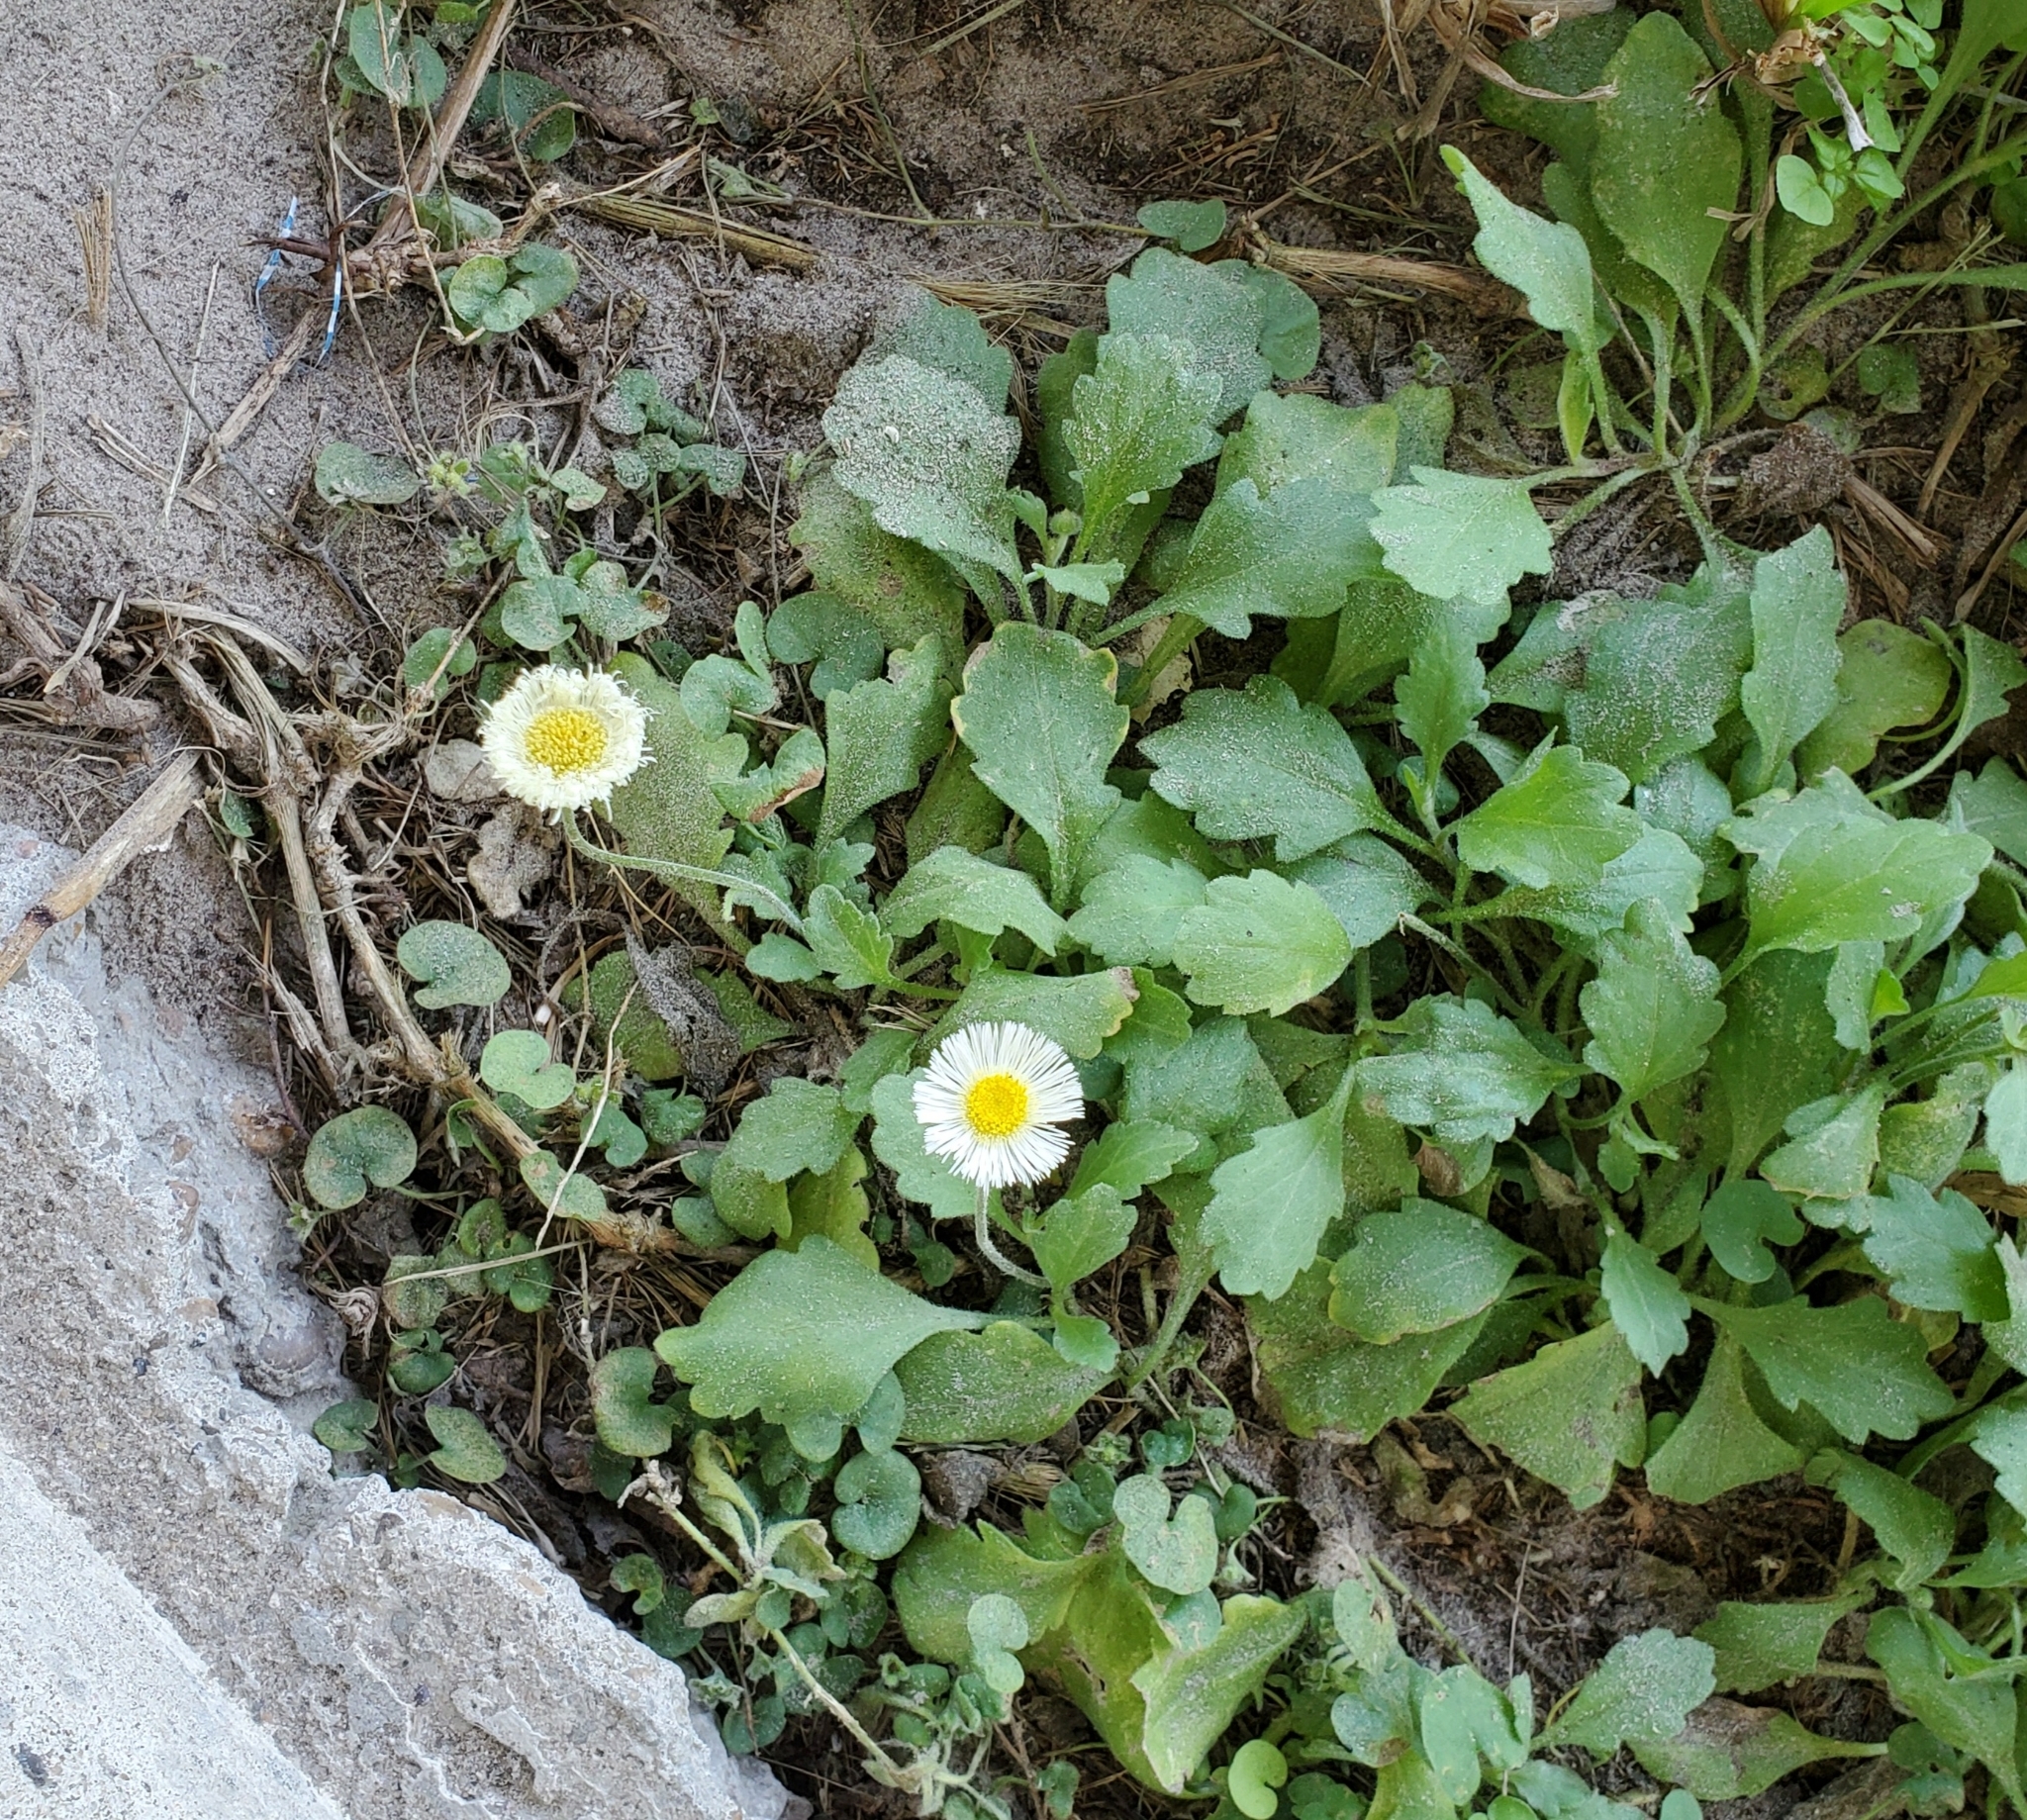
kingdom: Plantae
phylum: Tracheophyta
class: Magnoliopsida
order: Asterales
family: Asteraceae
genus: Erigeron
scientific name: Erigeron procumbens
